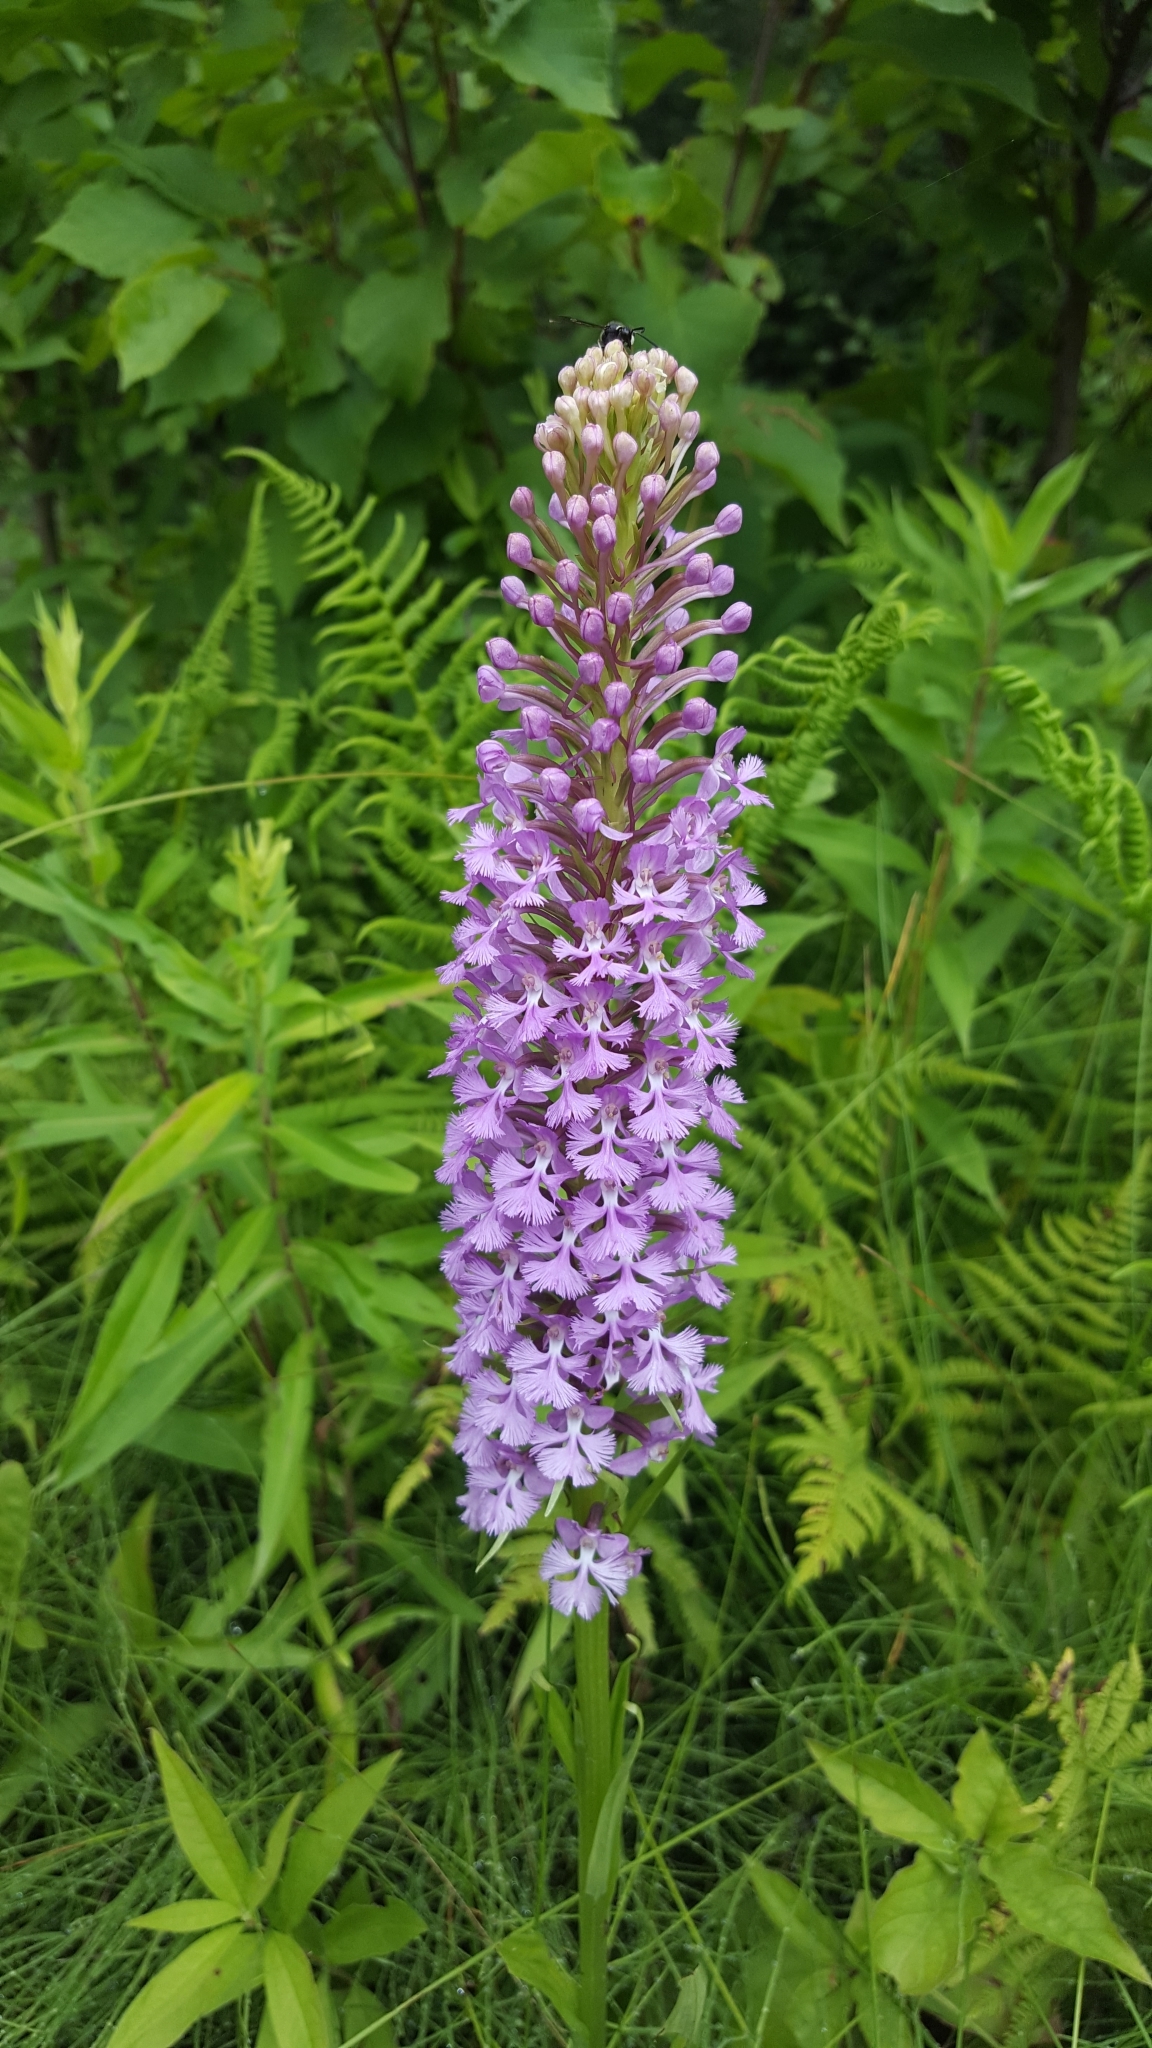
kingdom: Plantae
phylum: Tracheophyta
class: Liliopsida
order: Asparagales
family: Orchidaceae
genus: Platanthera
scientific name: Platanthera psycodes
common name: Lesser purple fringed orchid
